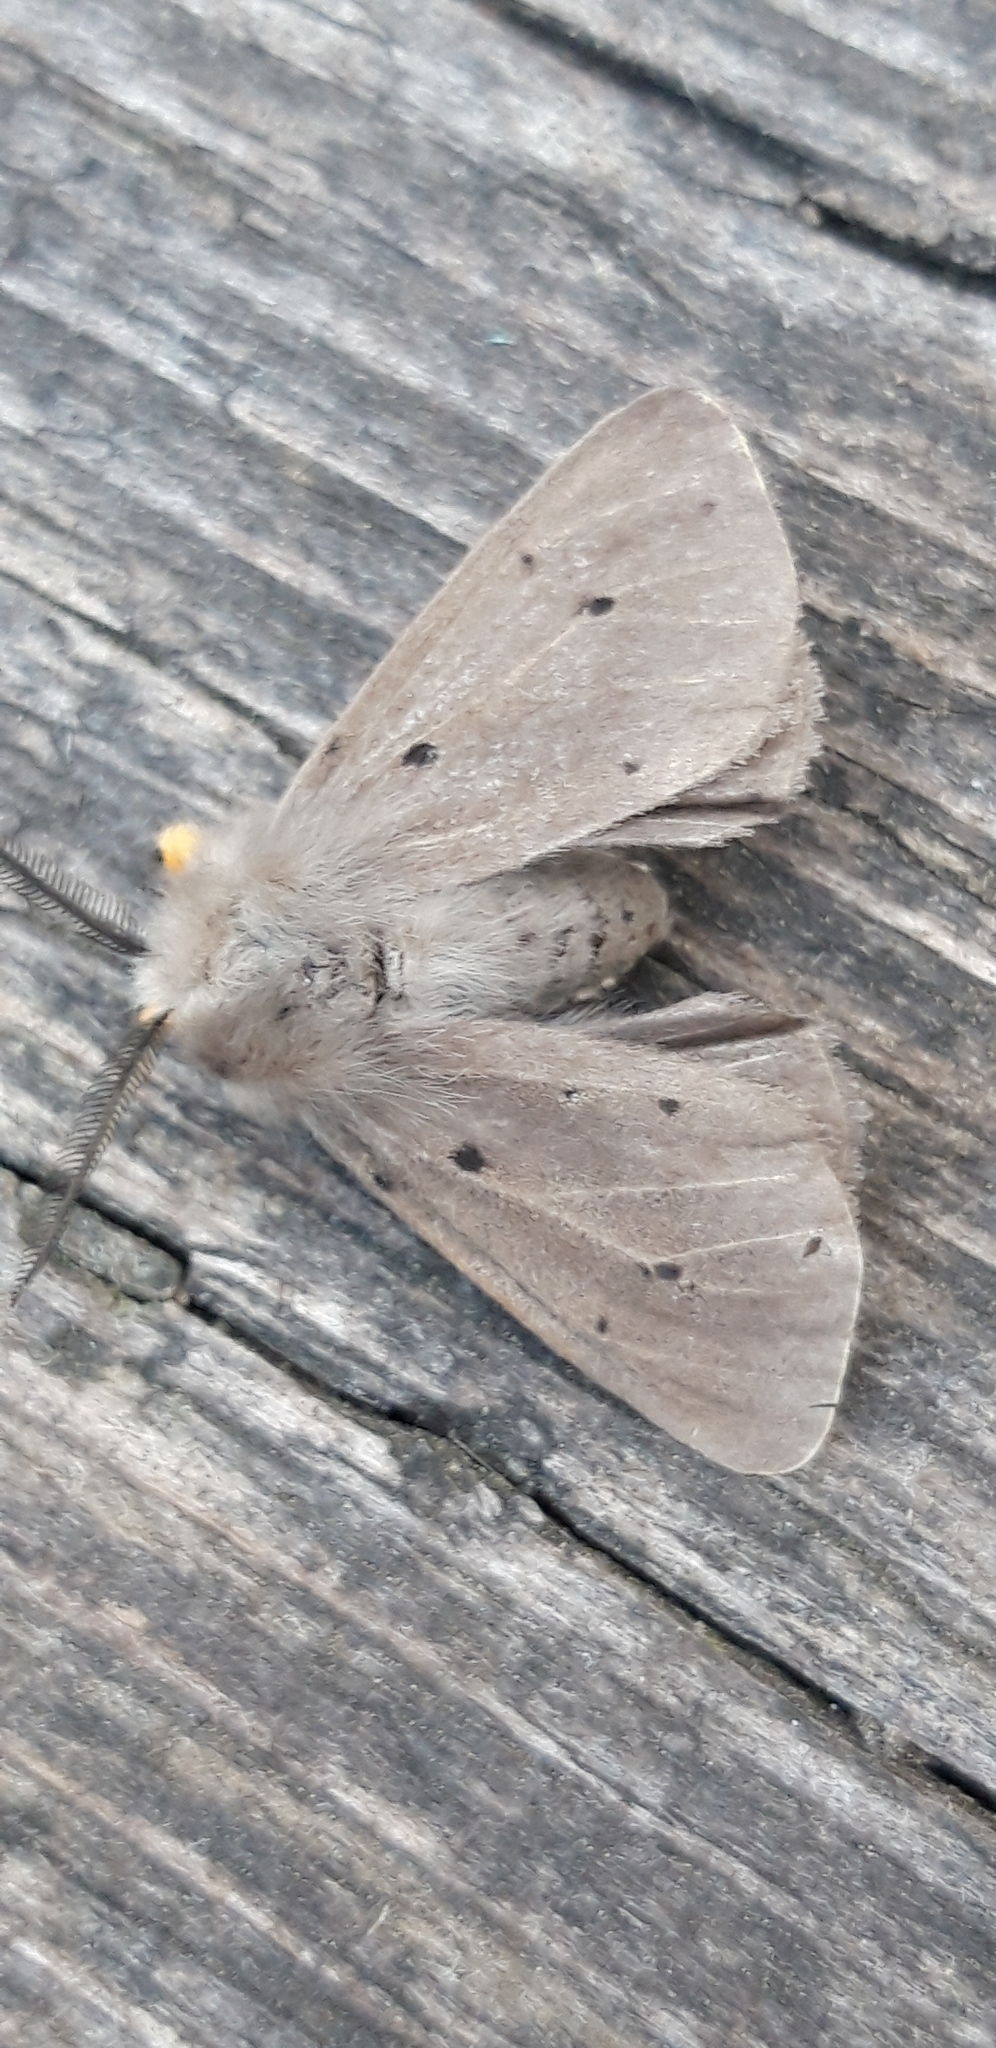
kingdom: Animalia
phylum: Arthropoda
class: Insecta
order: Lepidoptera
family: Erebidae
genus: Diaphora
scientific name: Diaphora mendica
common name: Muslin moth
